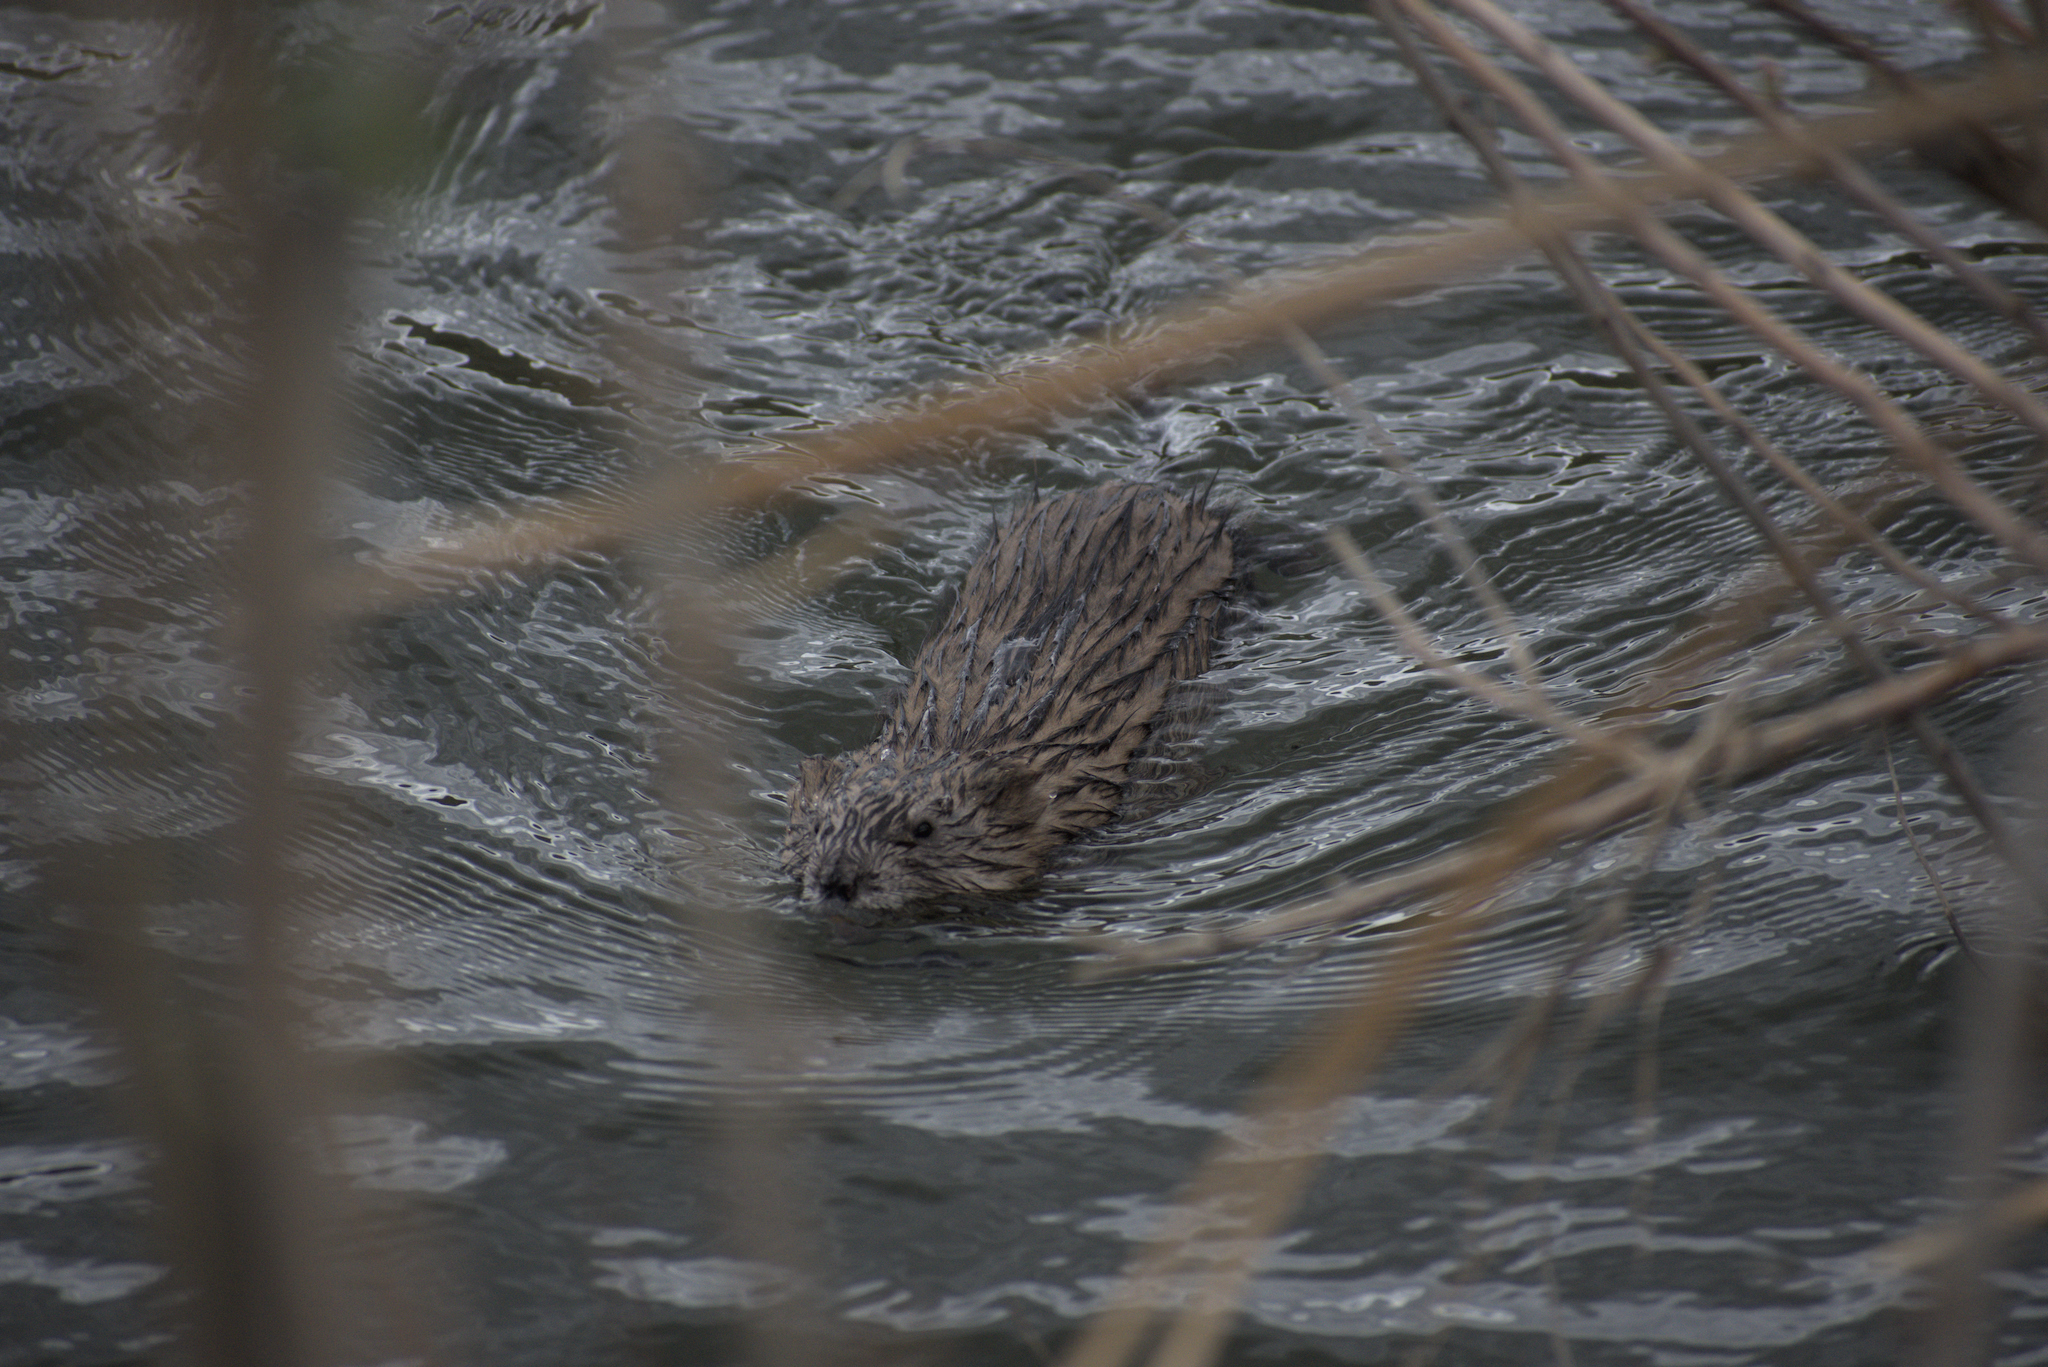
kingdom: Animalia
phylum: Chordata
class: Mammalia
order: Rodentia
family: Cricetidae
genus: Ondatra
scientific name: Ondatra zibethicus
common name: Muskrat
